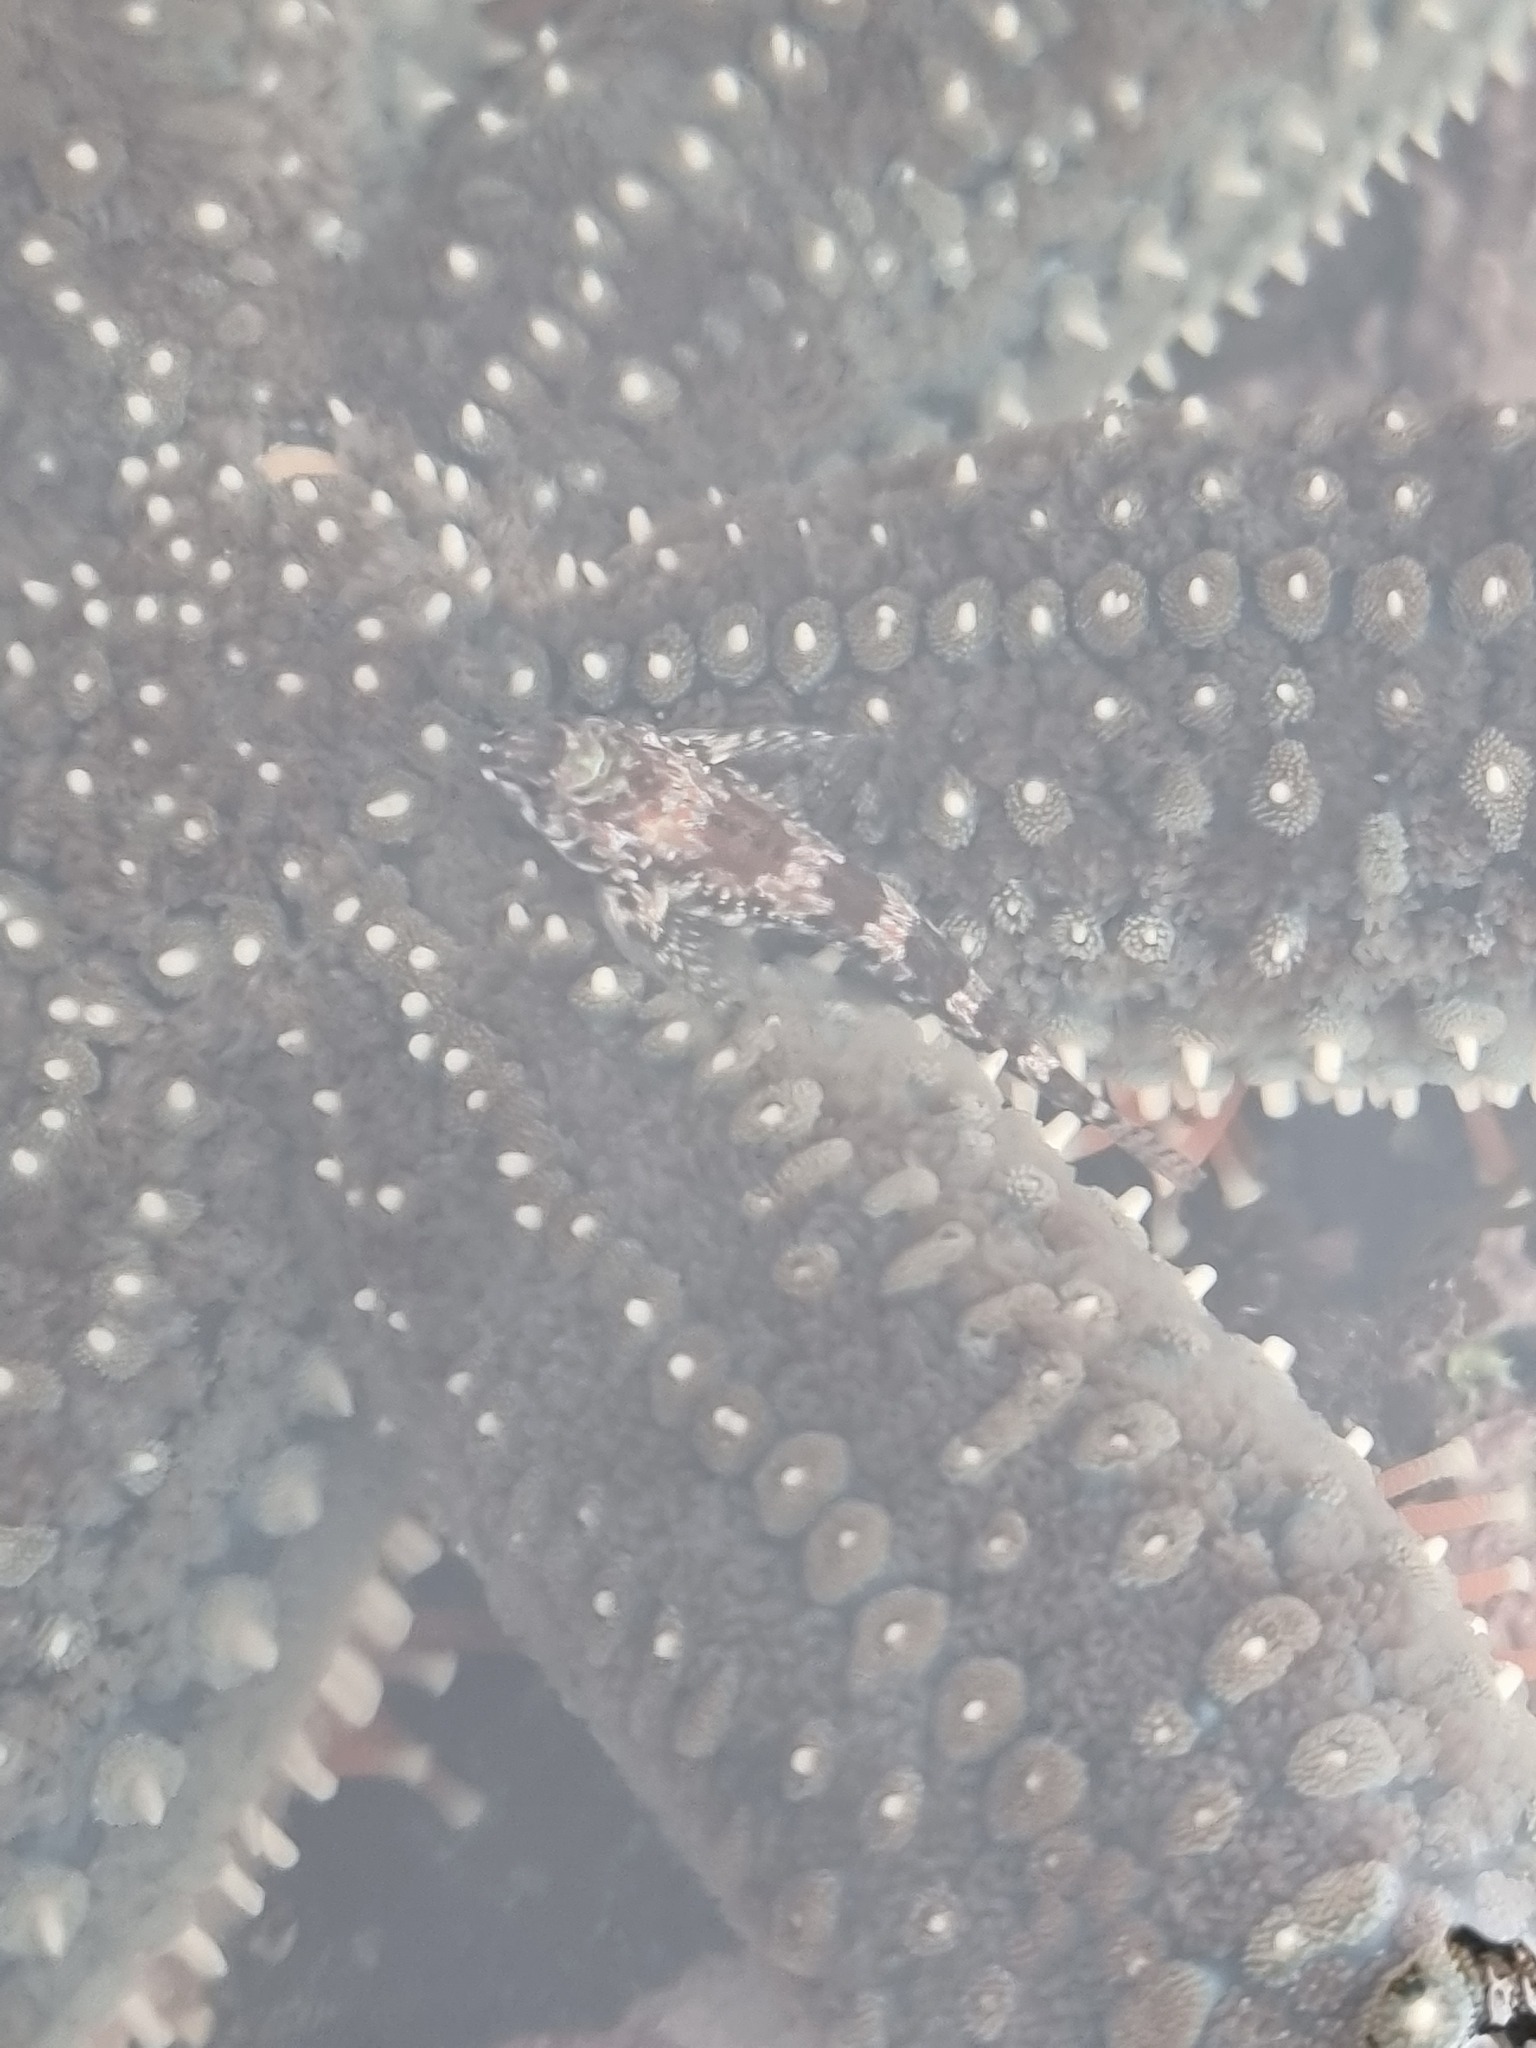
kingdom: Animalia
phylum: Chordata
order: Perciformes
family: Tripterygiidae
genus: Bellapiscis
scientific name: Bellapiscis lesleyae
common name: Mottled twister
